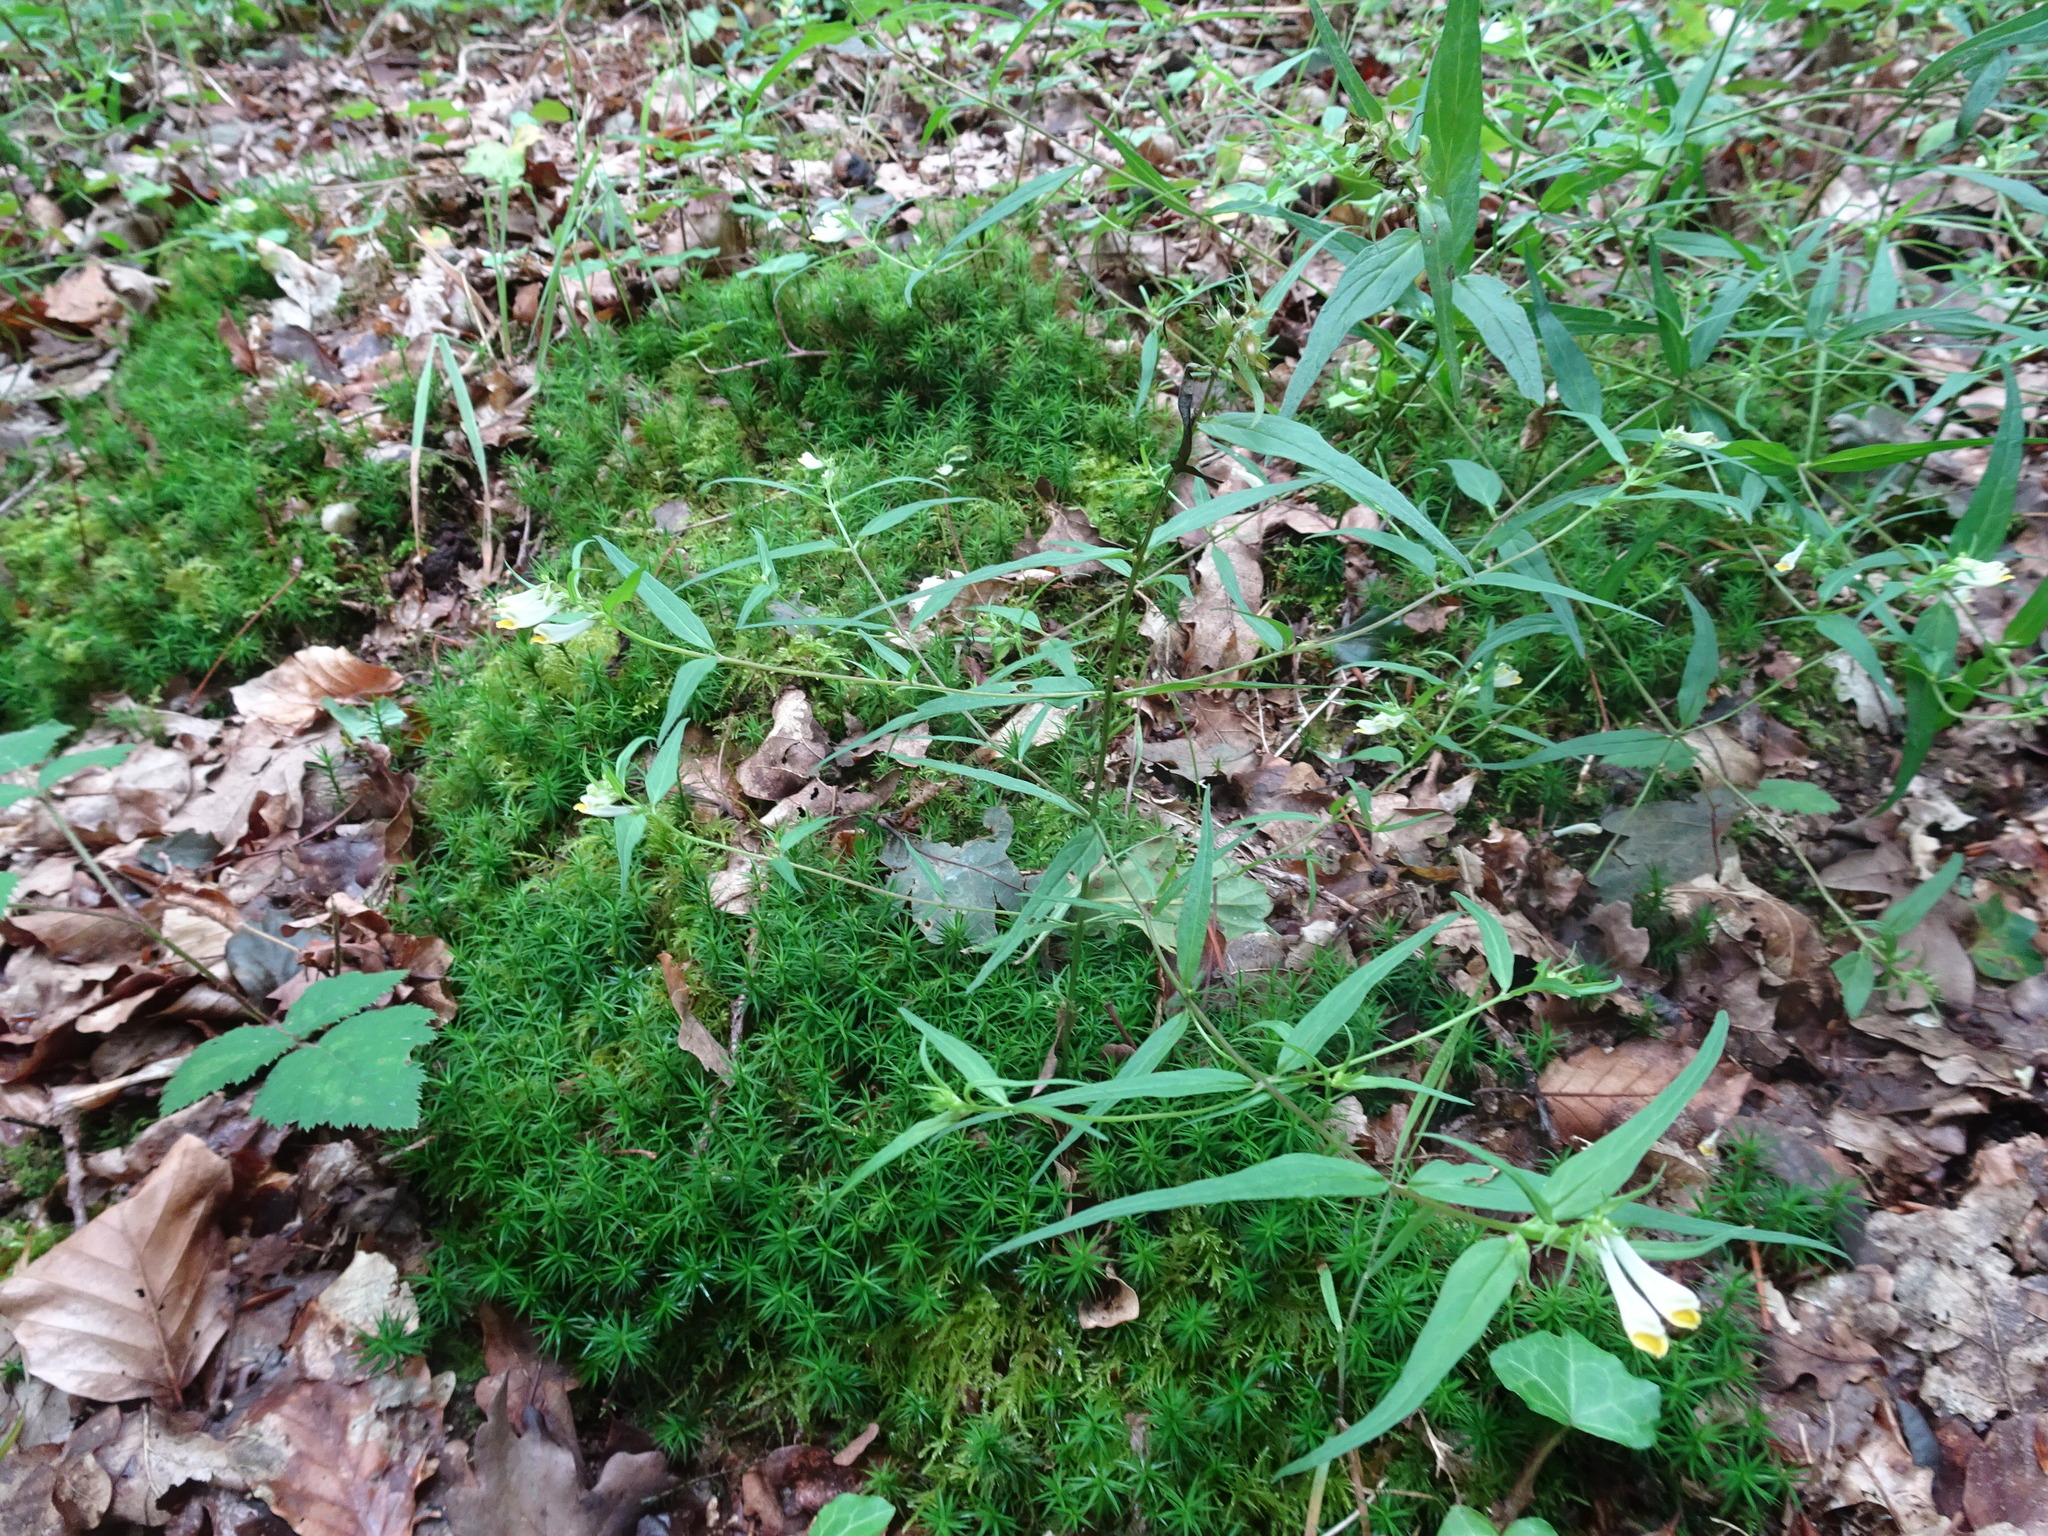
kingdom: Plantae
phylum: Tracheophyta
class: Magnoliopsida
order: Lamiales
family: Orobanchaceae
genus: Melampyrum
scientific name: Melampyrum pratense
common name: Common cow-wheat
